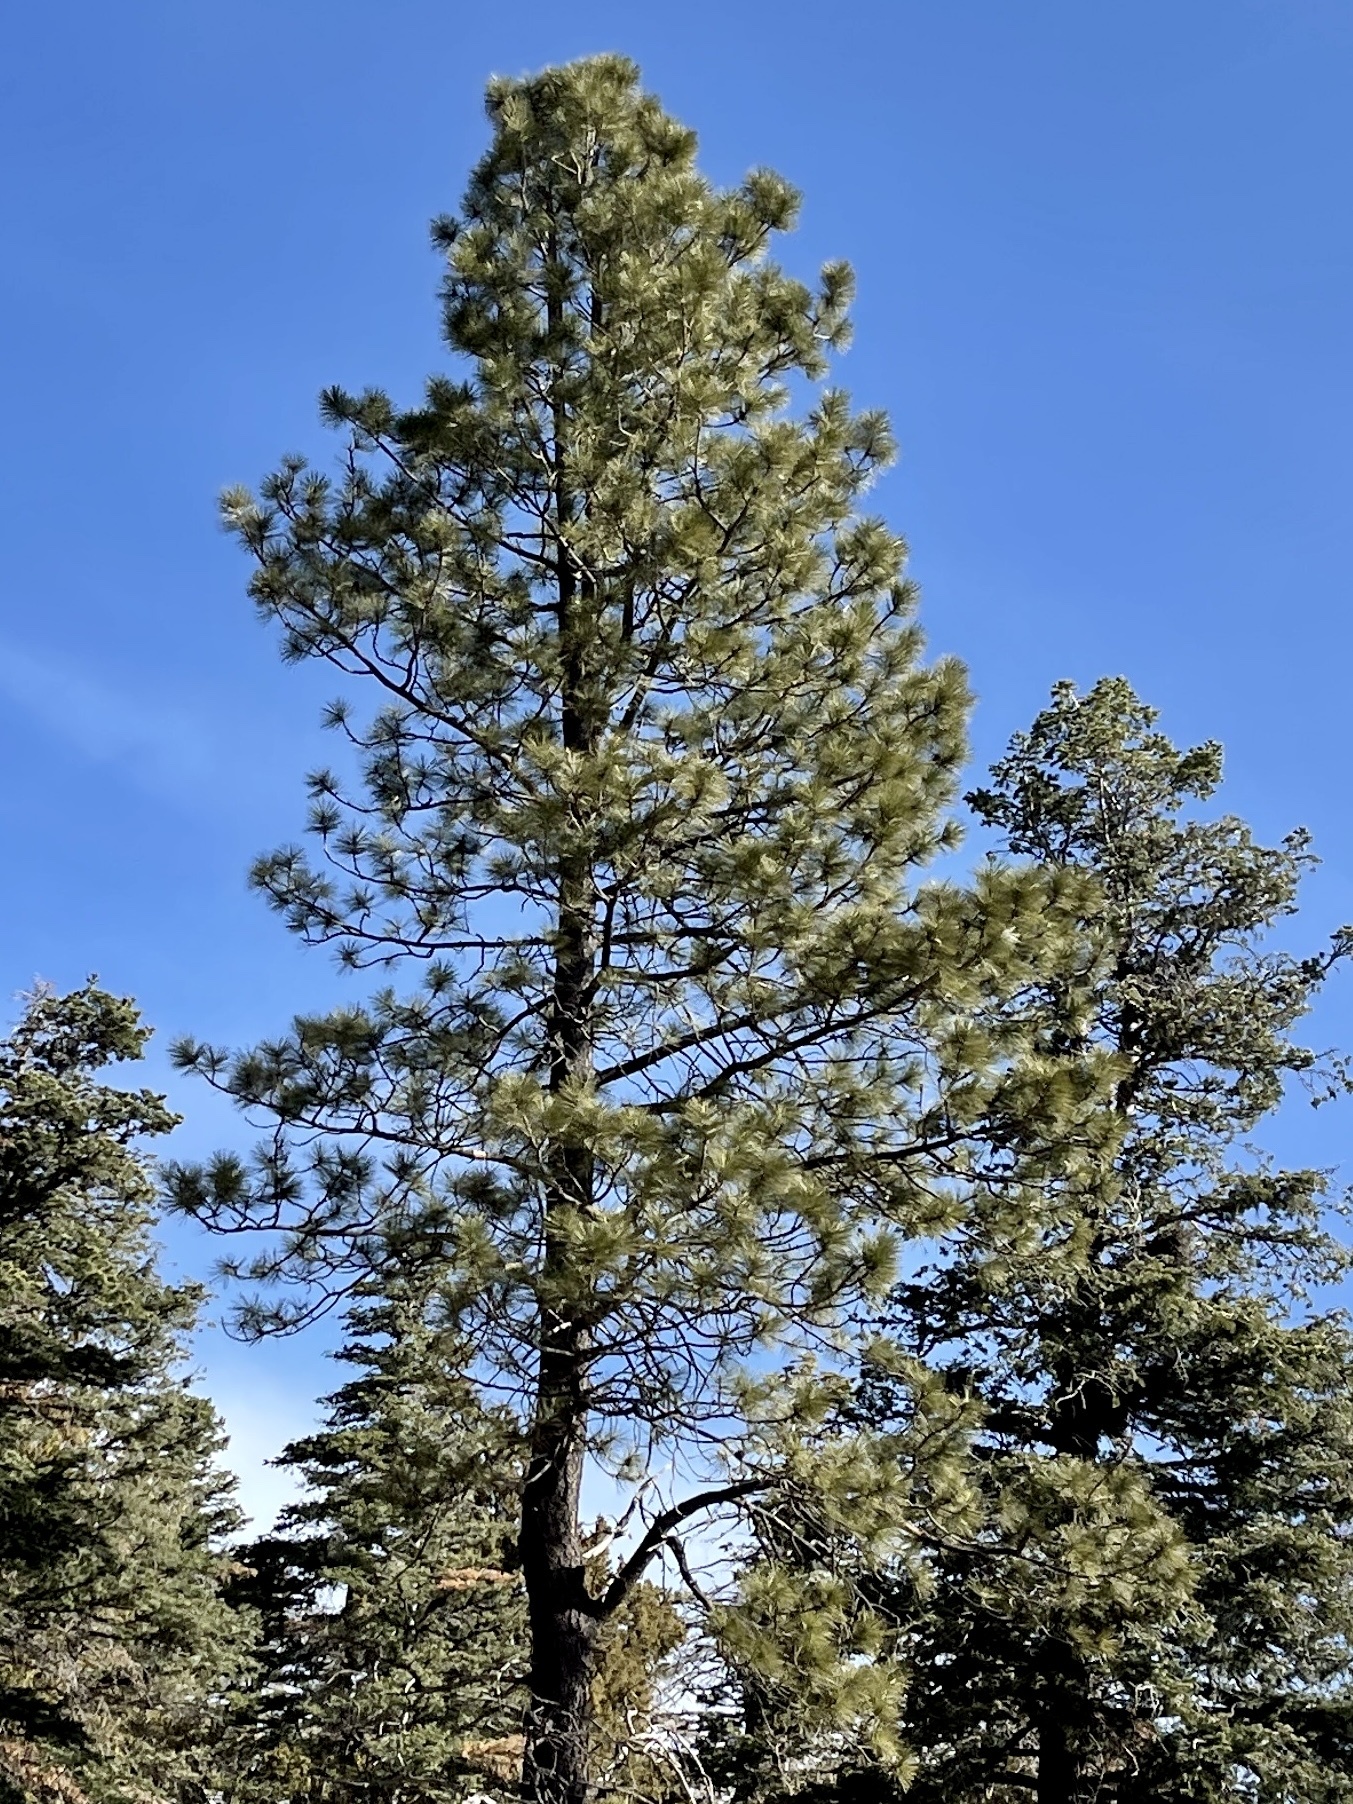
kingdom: Plantae
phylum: Tracheophyta
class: Pinopsida
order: Pinales
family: Pinaceae
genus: Pinus
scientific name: Pinus ponderosa
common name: Western yellow-pine
